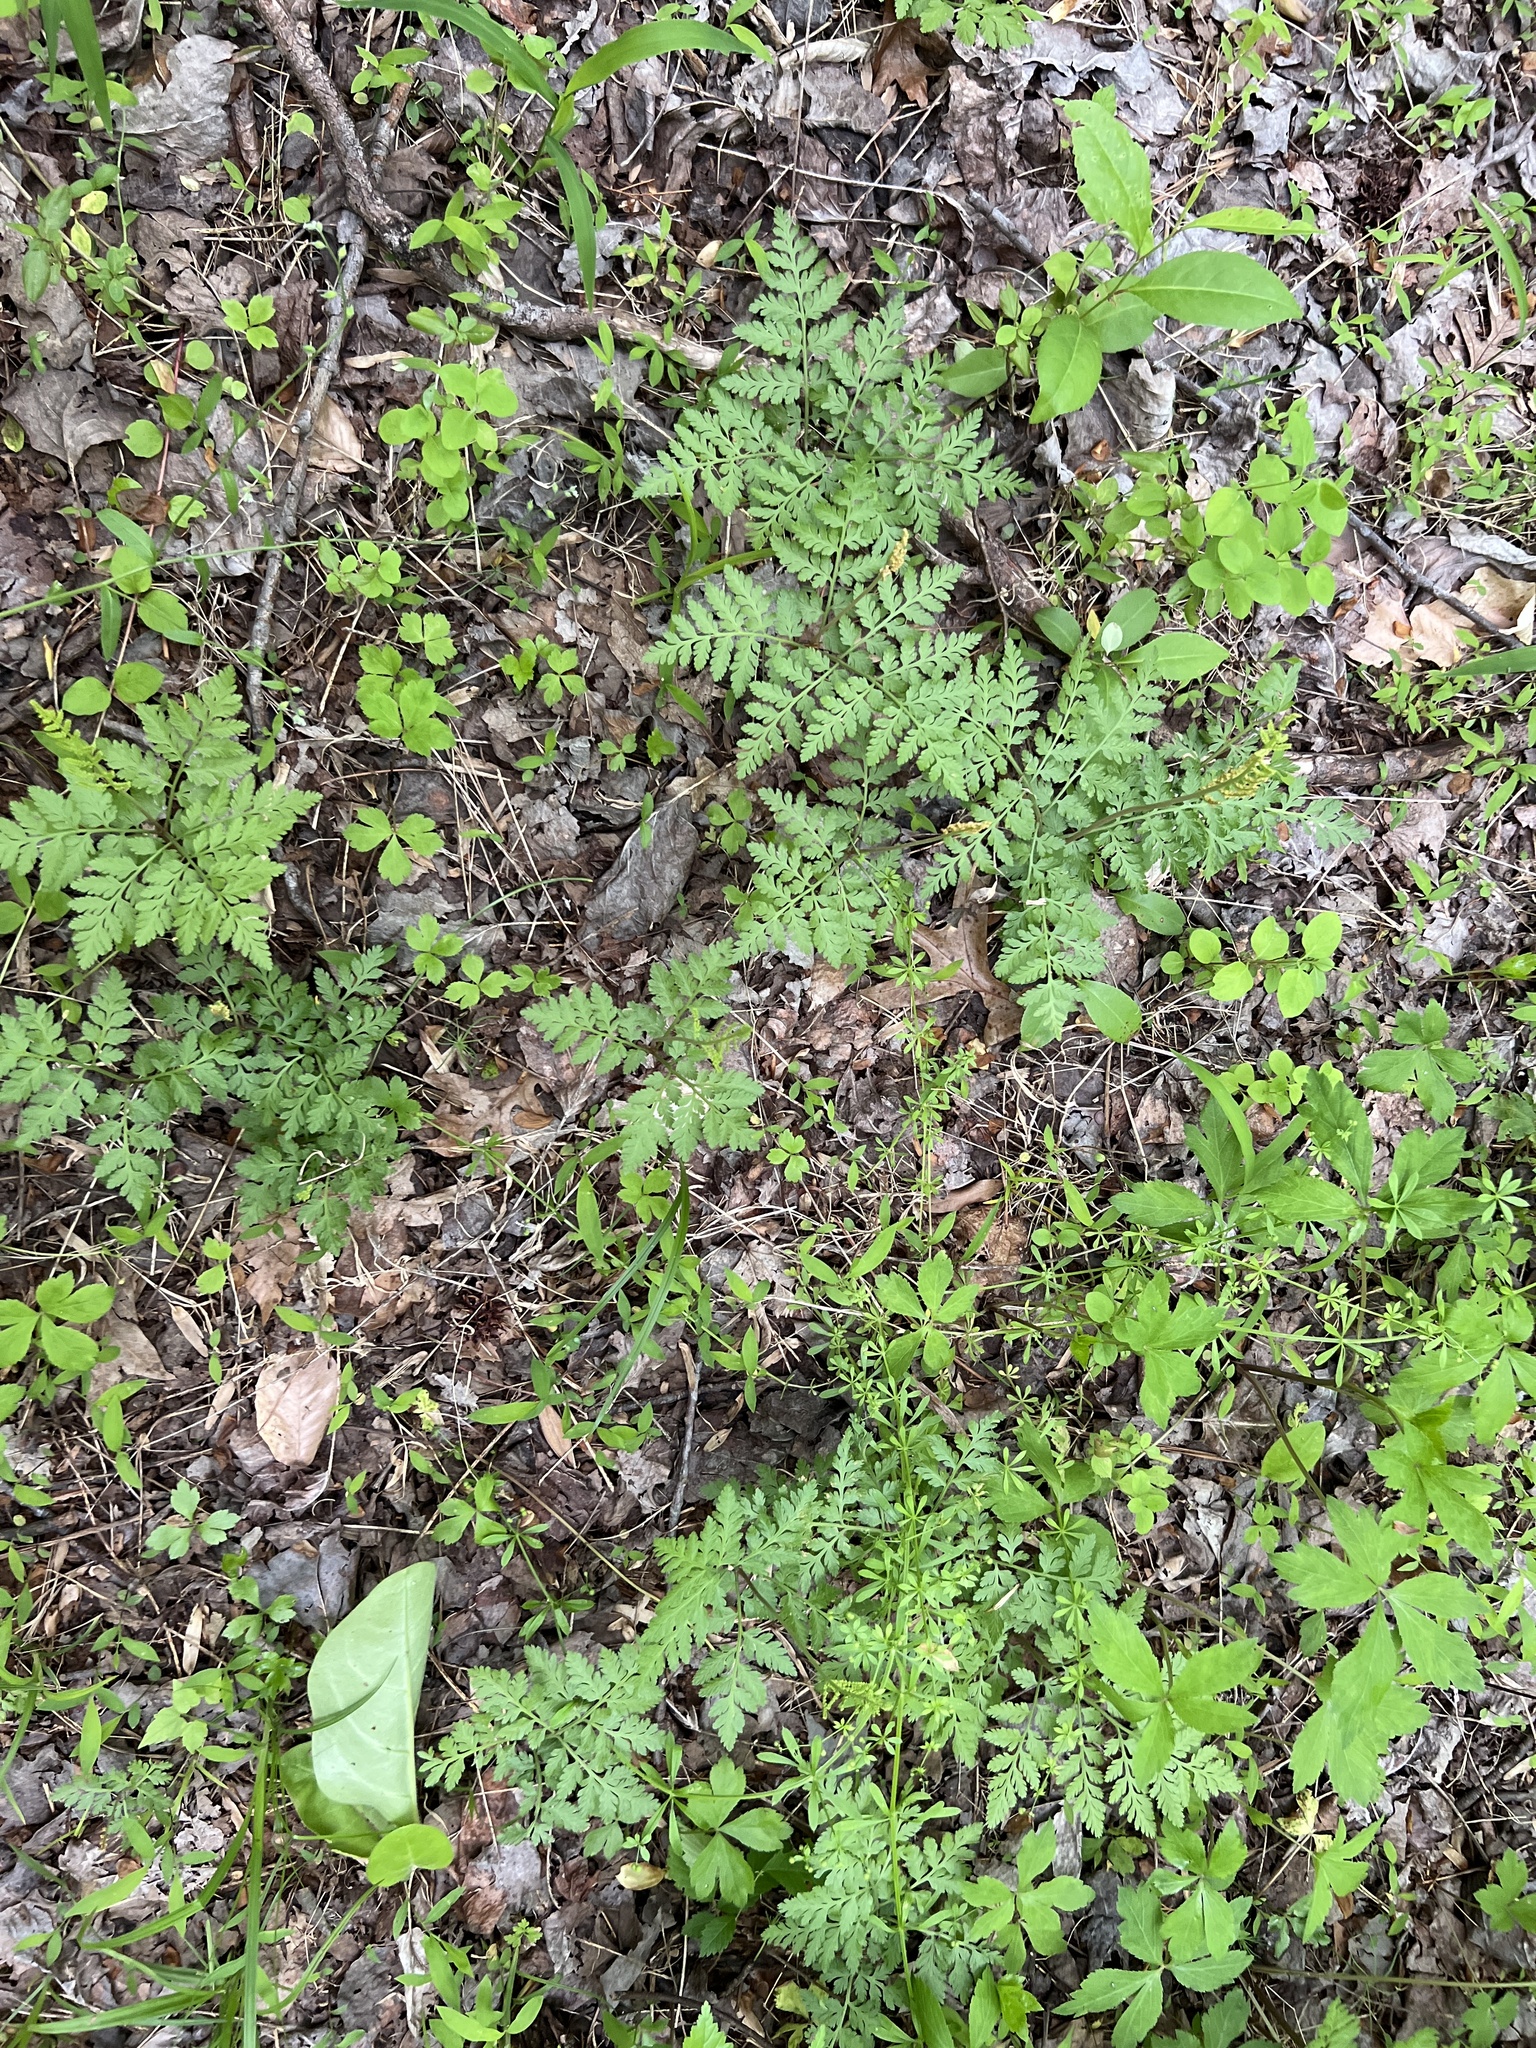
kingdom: Plantae
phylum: Tracheophyta
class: Polypodiopsida
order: Ophioglossales
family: Ophioglossaceae
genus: Botrypus
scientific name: Botrypus virginianus
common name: Common grapefern
